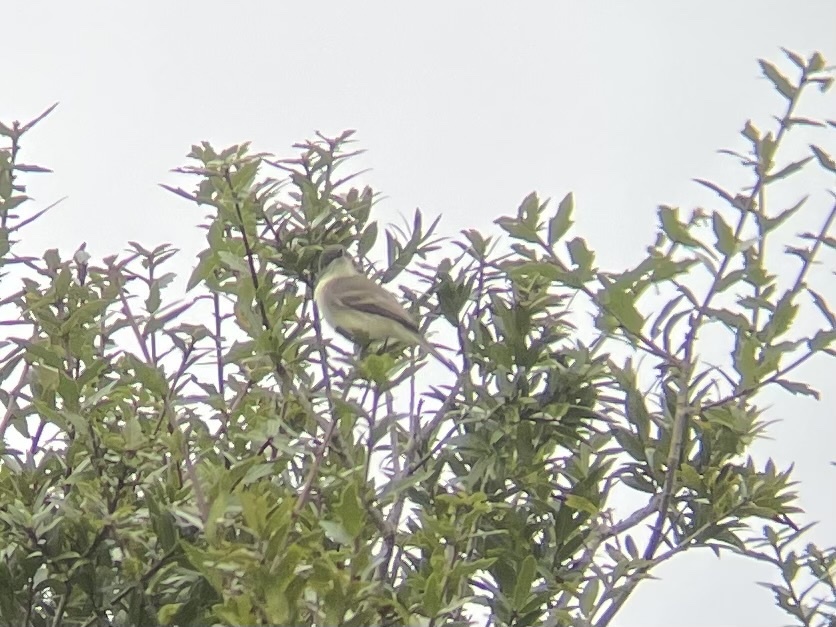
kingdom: Animalia
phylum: Chordata
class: Aves
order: Passeriformes
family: Tyrannidae
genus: Sayornis
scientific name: Sayornis phoebe
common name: Eastern phoebe
